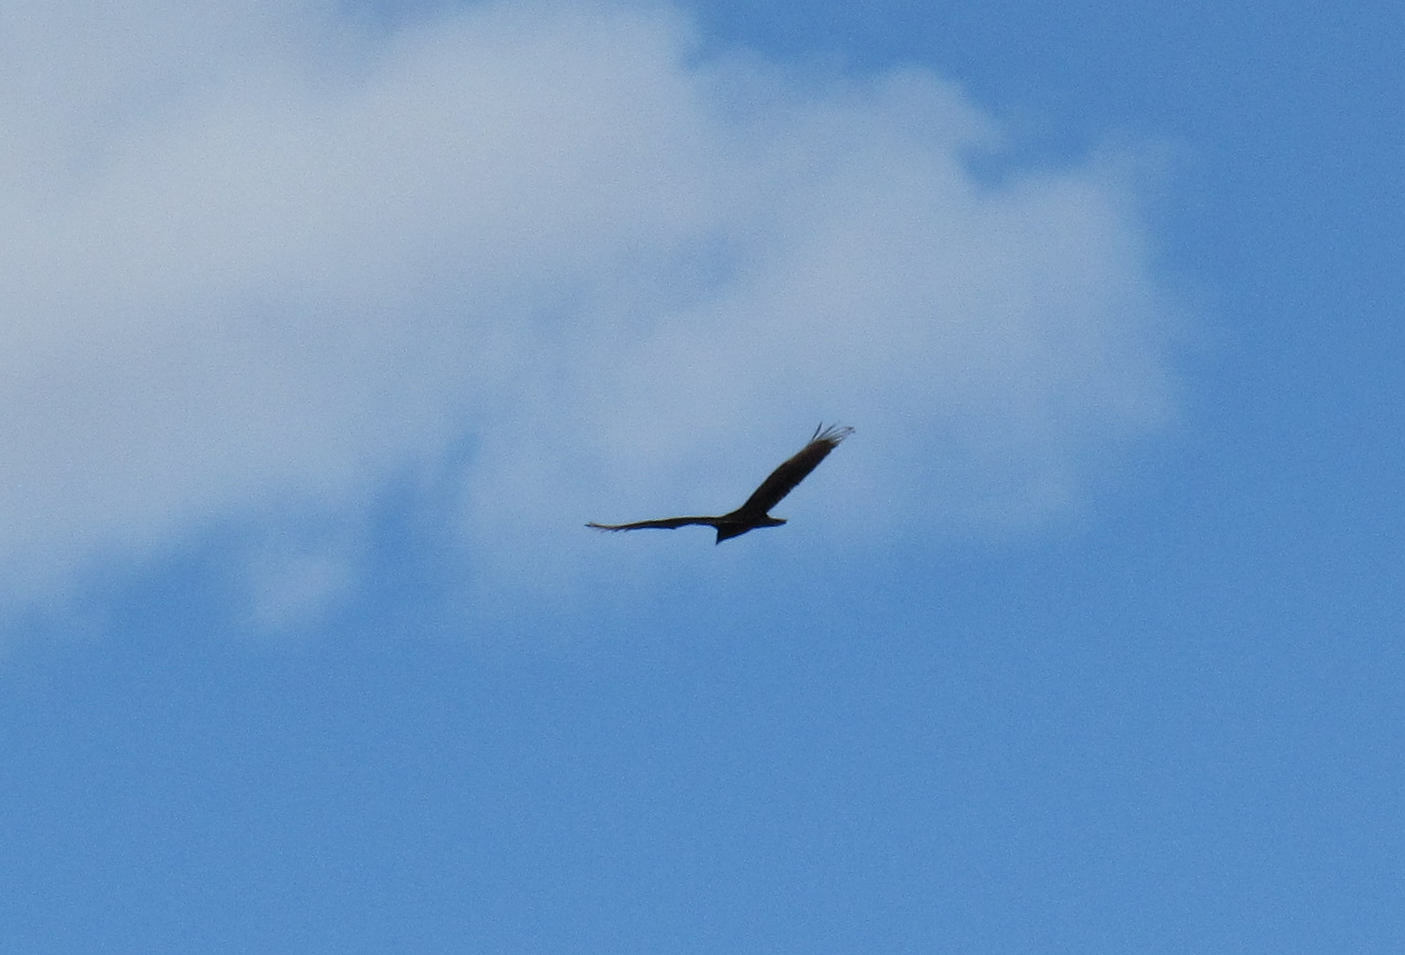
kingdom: Animalia
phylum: Chordata
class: Aves
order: Accipitriformes
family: Cathartidae
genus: Cathartes
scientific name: Cathartes aura
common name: Turkey vulture
